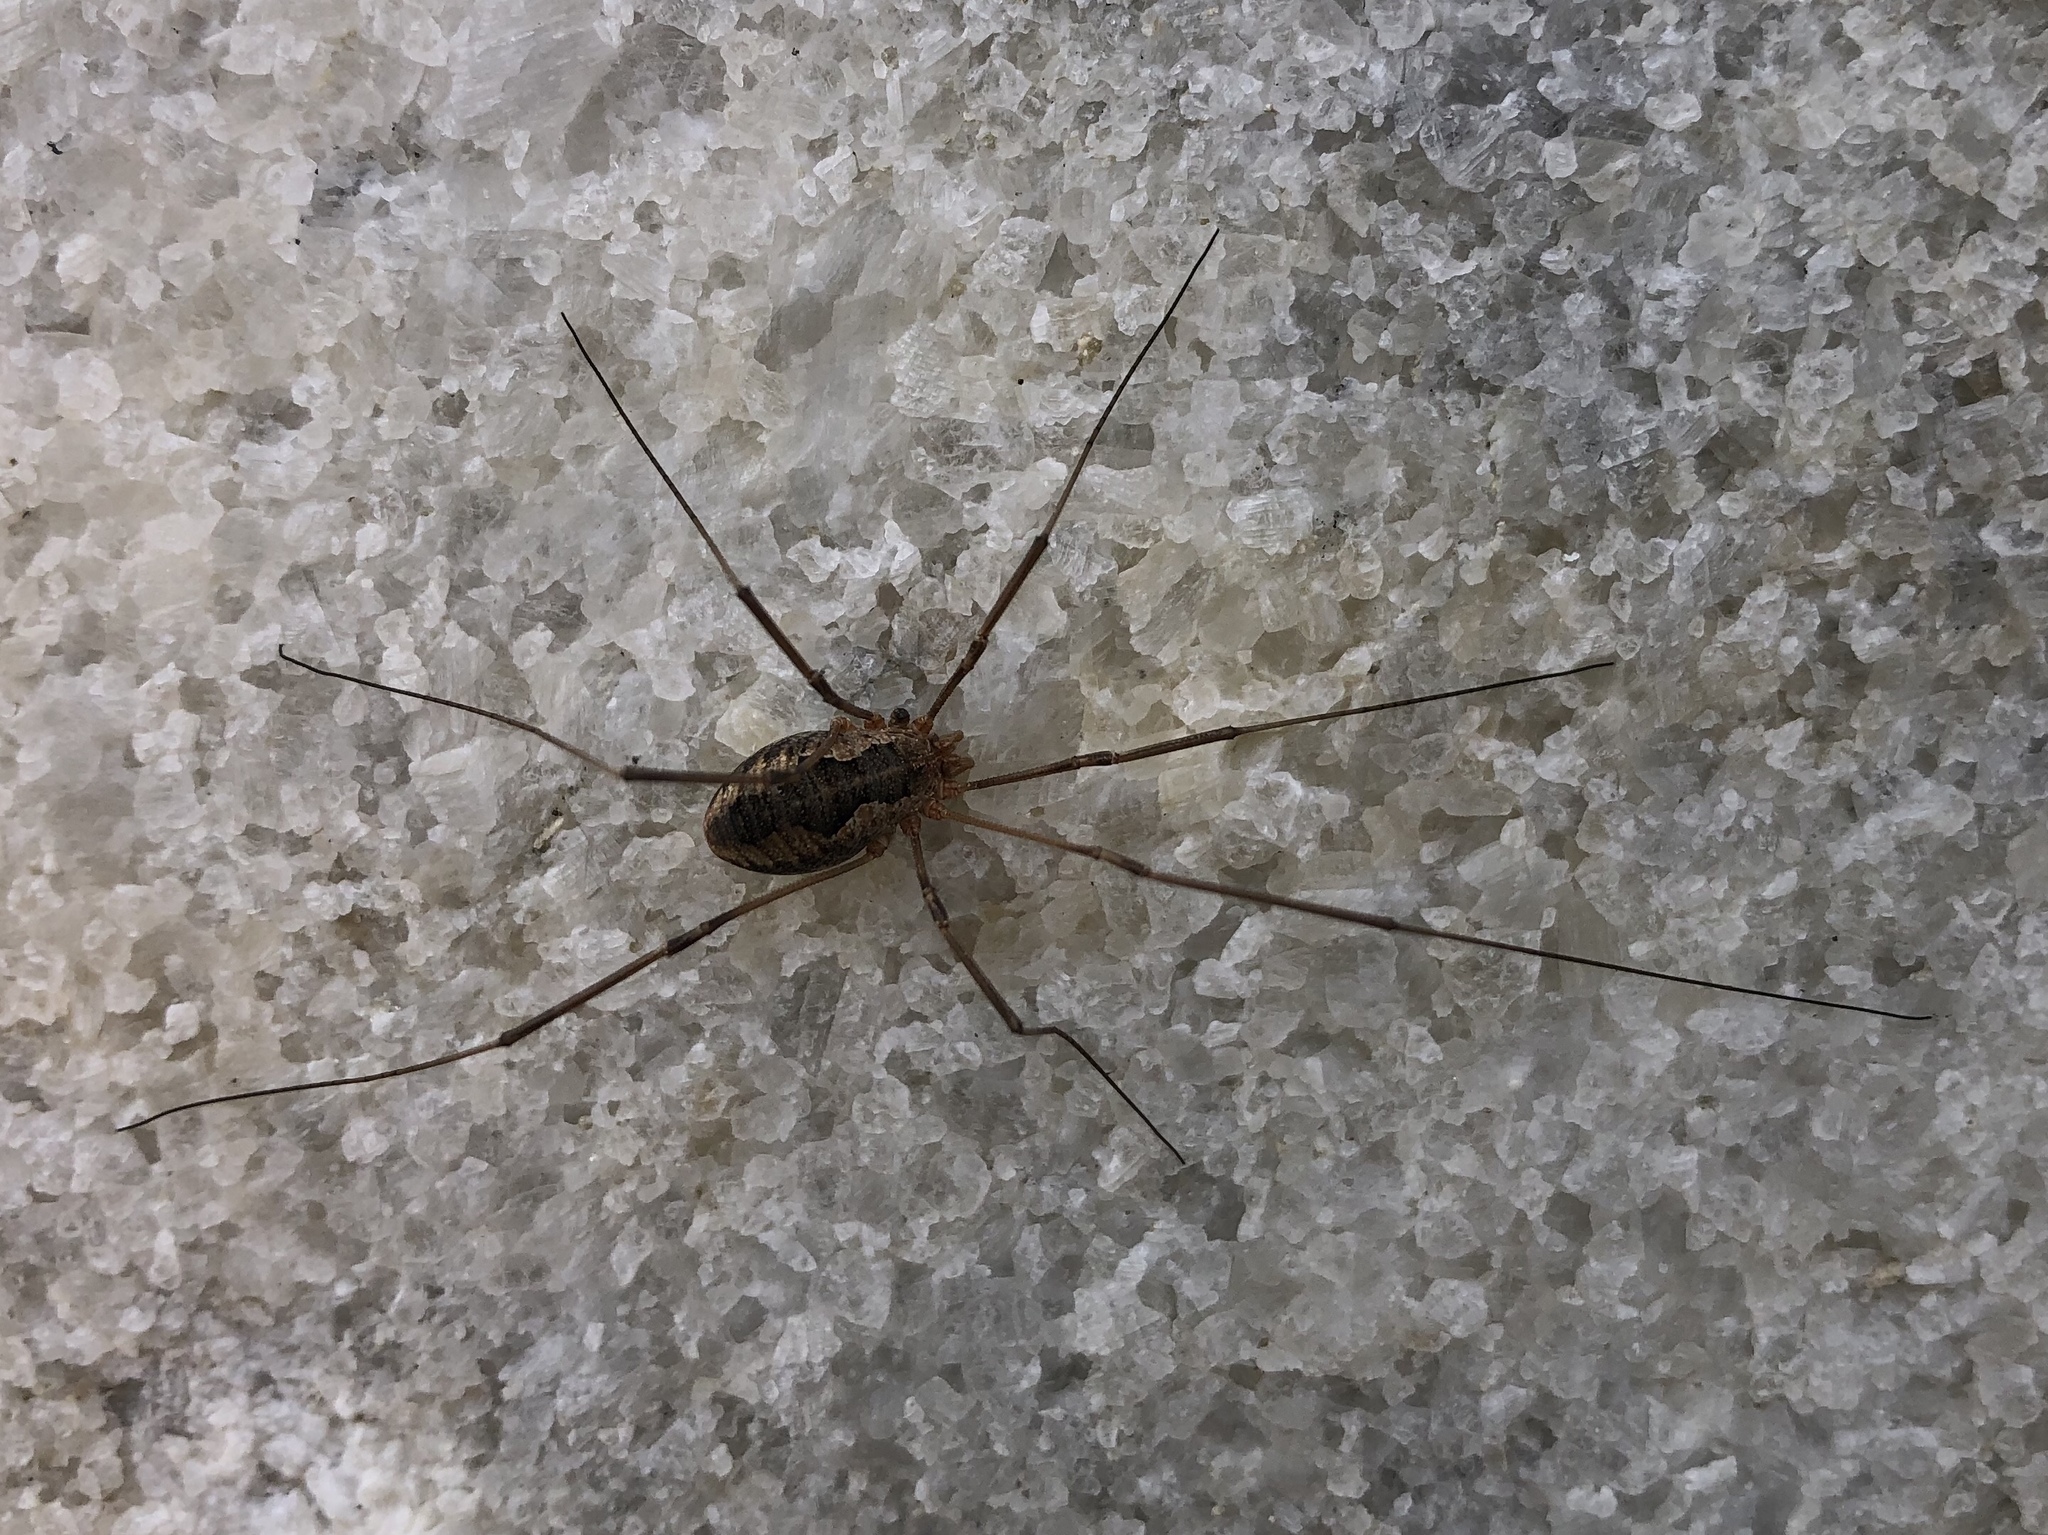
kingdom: Animalia
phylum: Arthropoda
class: Arachnida
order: Opiliones
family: Phalangiidae
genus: Phalangium
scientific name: Phalangium opilio
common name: Daddy longleg
